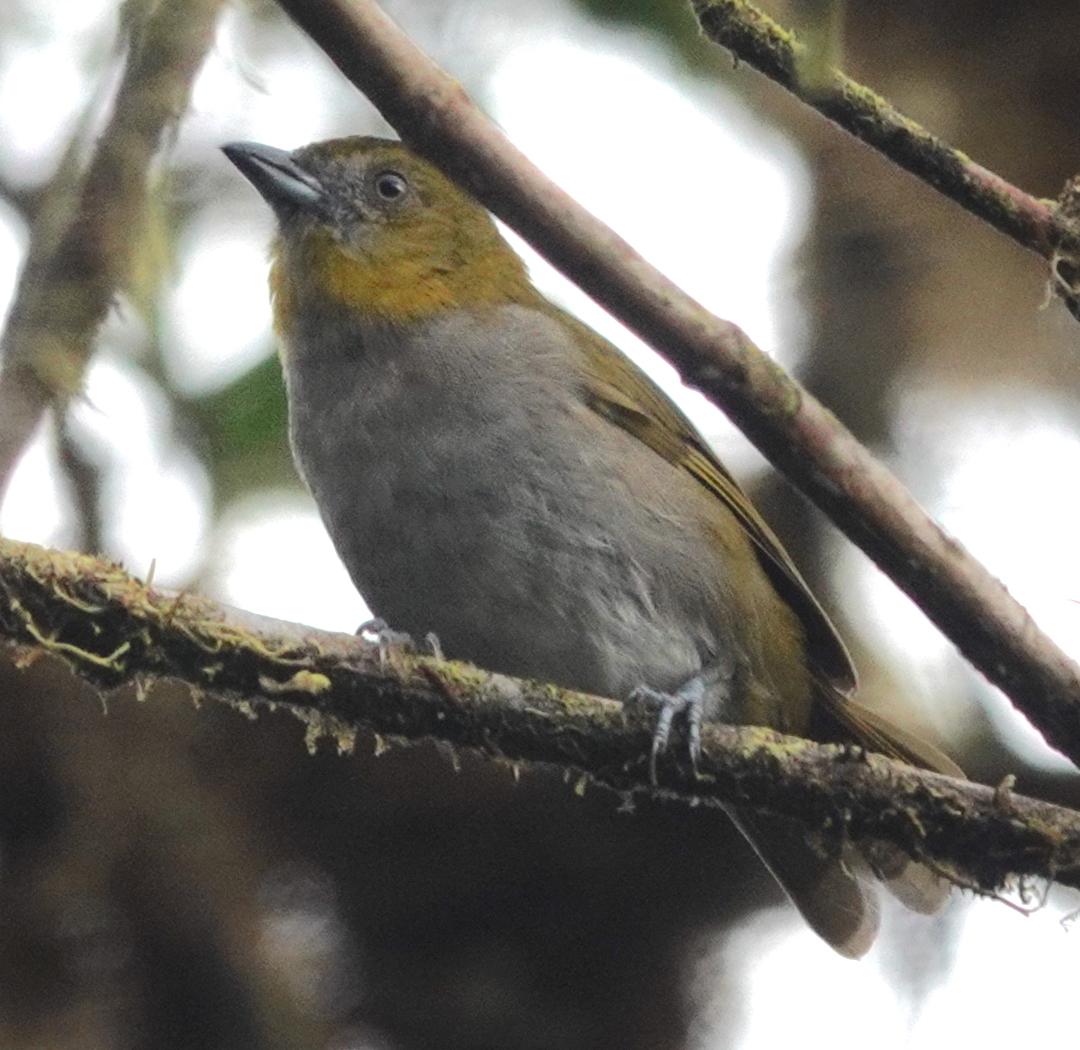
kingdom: Animalia
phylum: Chordata
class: Aves
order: Passeriformes
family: Passerellidae
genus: Chlorospingus
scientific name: Chlorospingus flavigularis
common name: Yellow-throated bush-tanager
